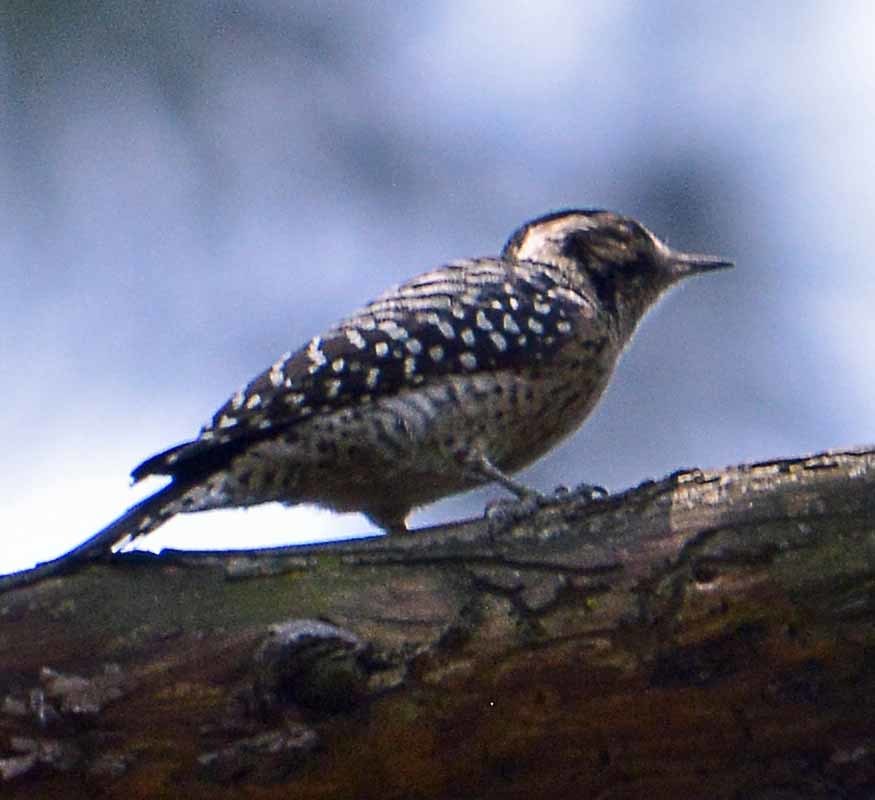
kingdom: Animalia
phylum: Chordata
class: Aves
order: Piciformes
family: Picidae
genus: Dryobates
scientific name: Dryobates scalaris
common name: Ladder-backed woodpecker
